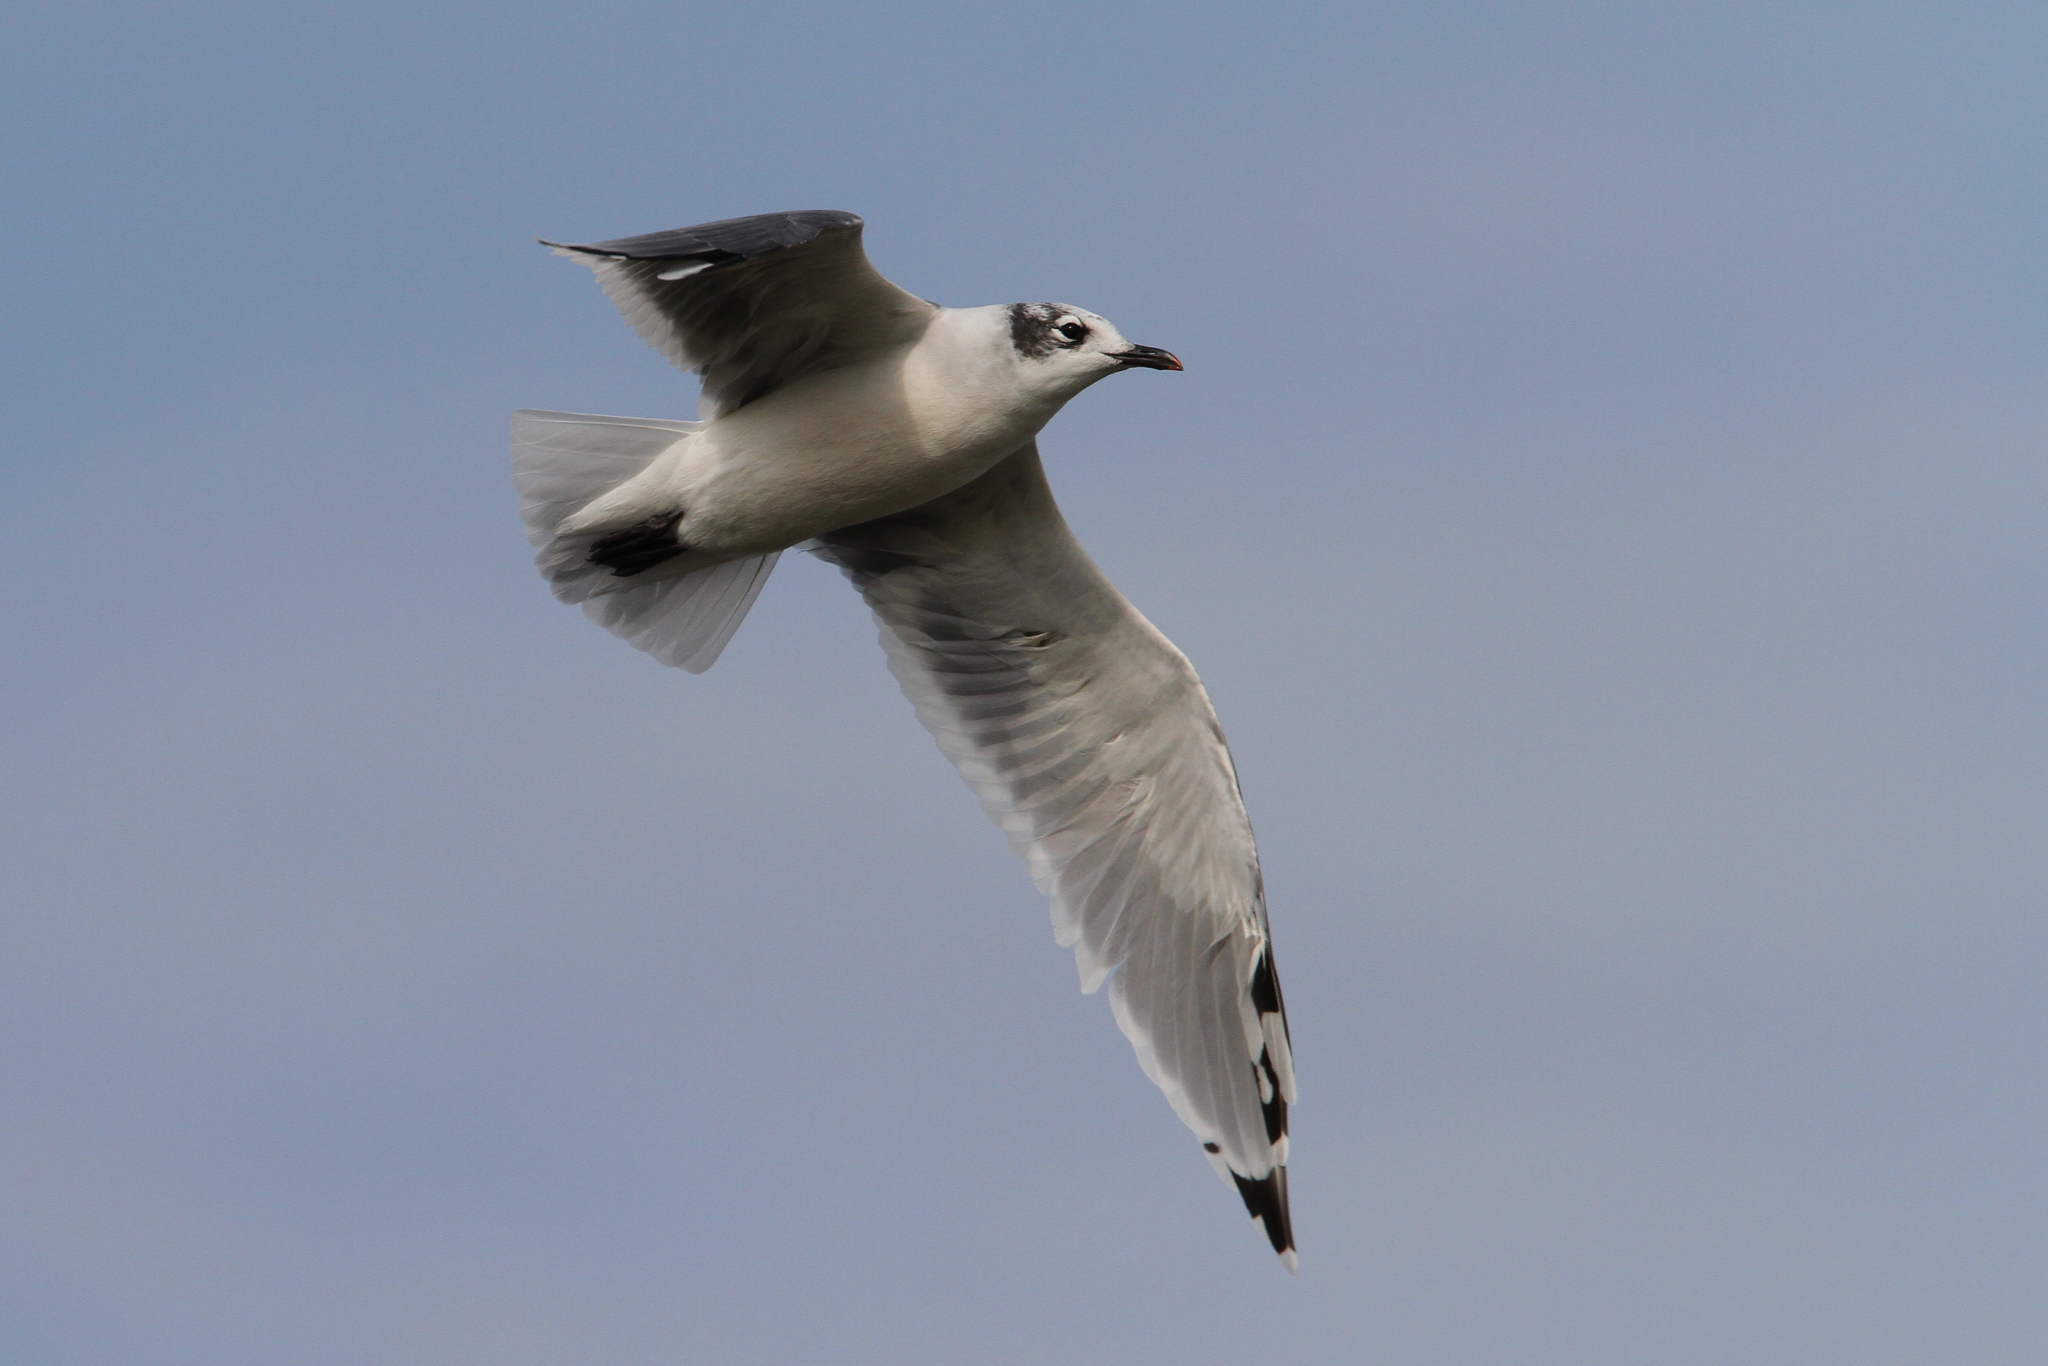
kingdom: Animalia
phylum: Chordata
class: Aves
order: Charadriiformes
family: Laridae
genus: Leucophaeus
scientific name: Leucophaeus pipixcan
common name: Franklin's gull
